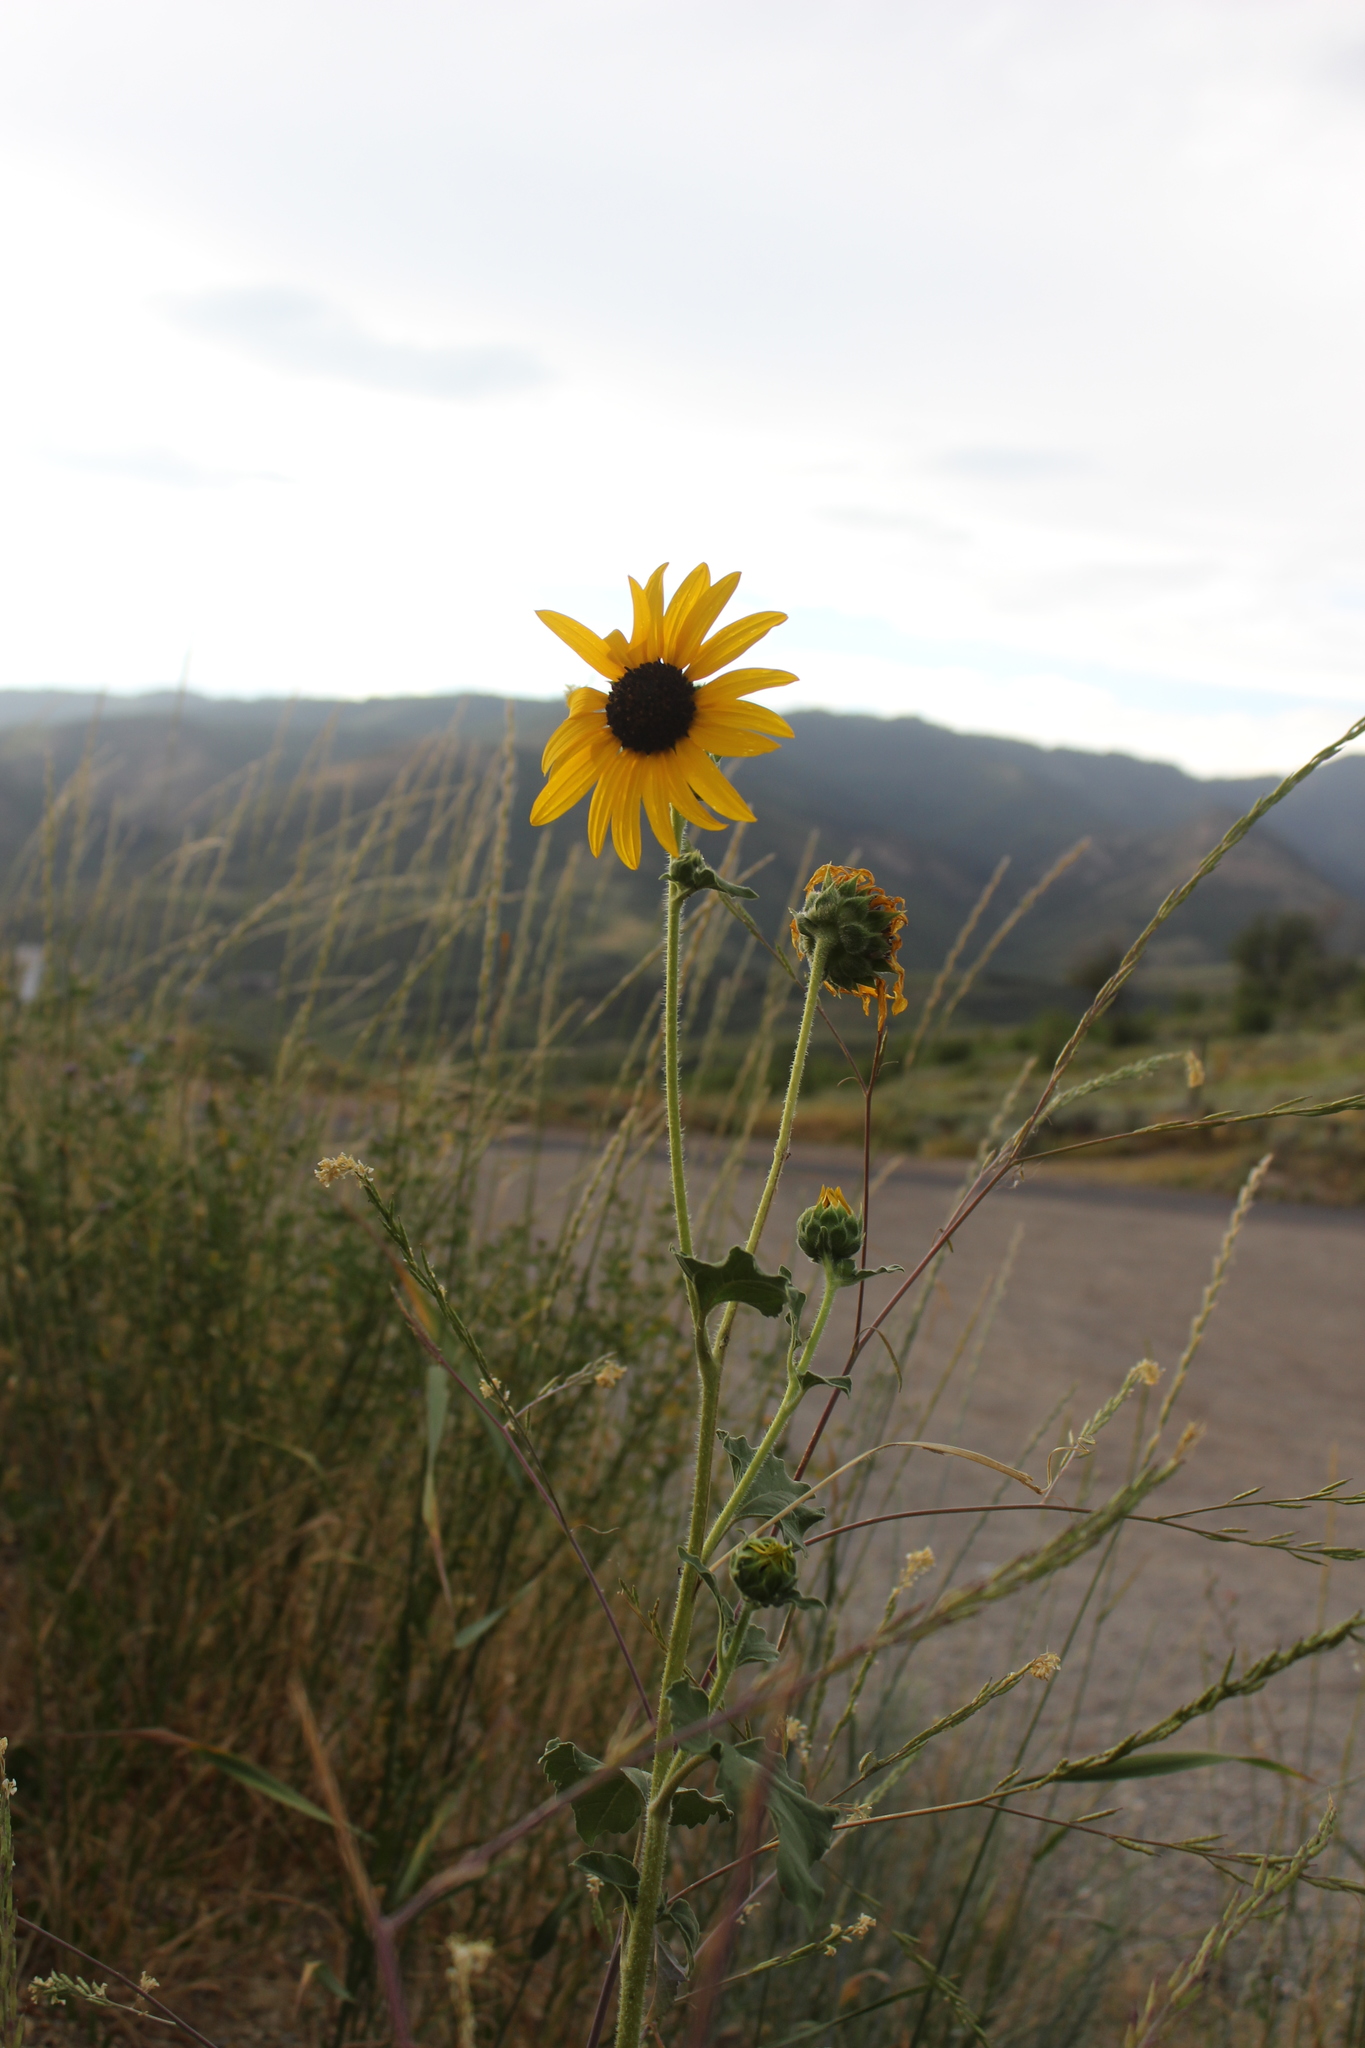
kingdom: Plantae
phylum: Tracheophyta
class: Magnoliopsida
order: Asterales
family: Asteraceae
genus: Helianthus
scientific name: Helianthus annuus
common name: Sunflower
